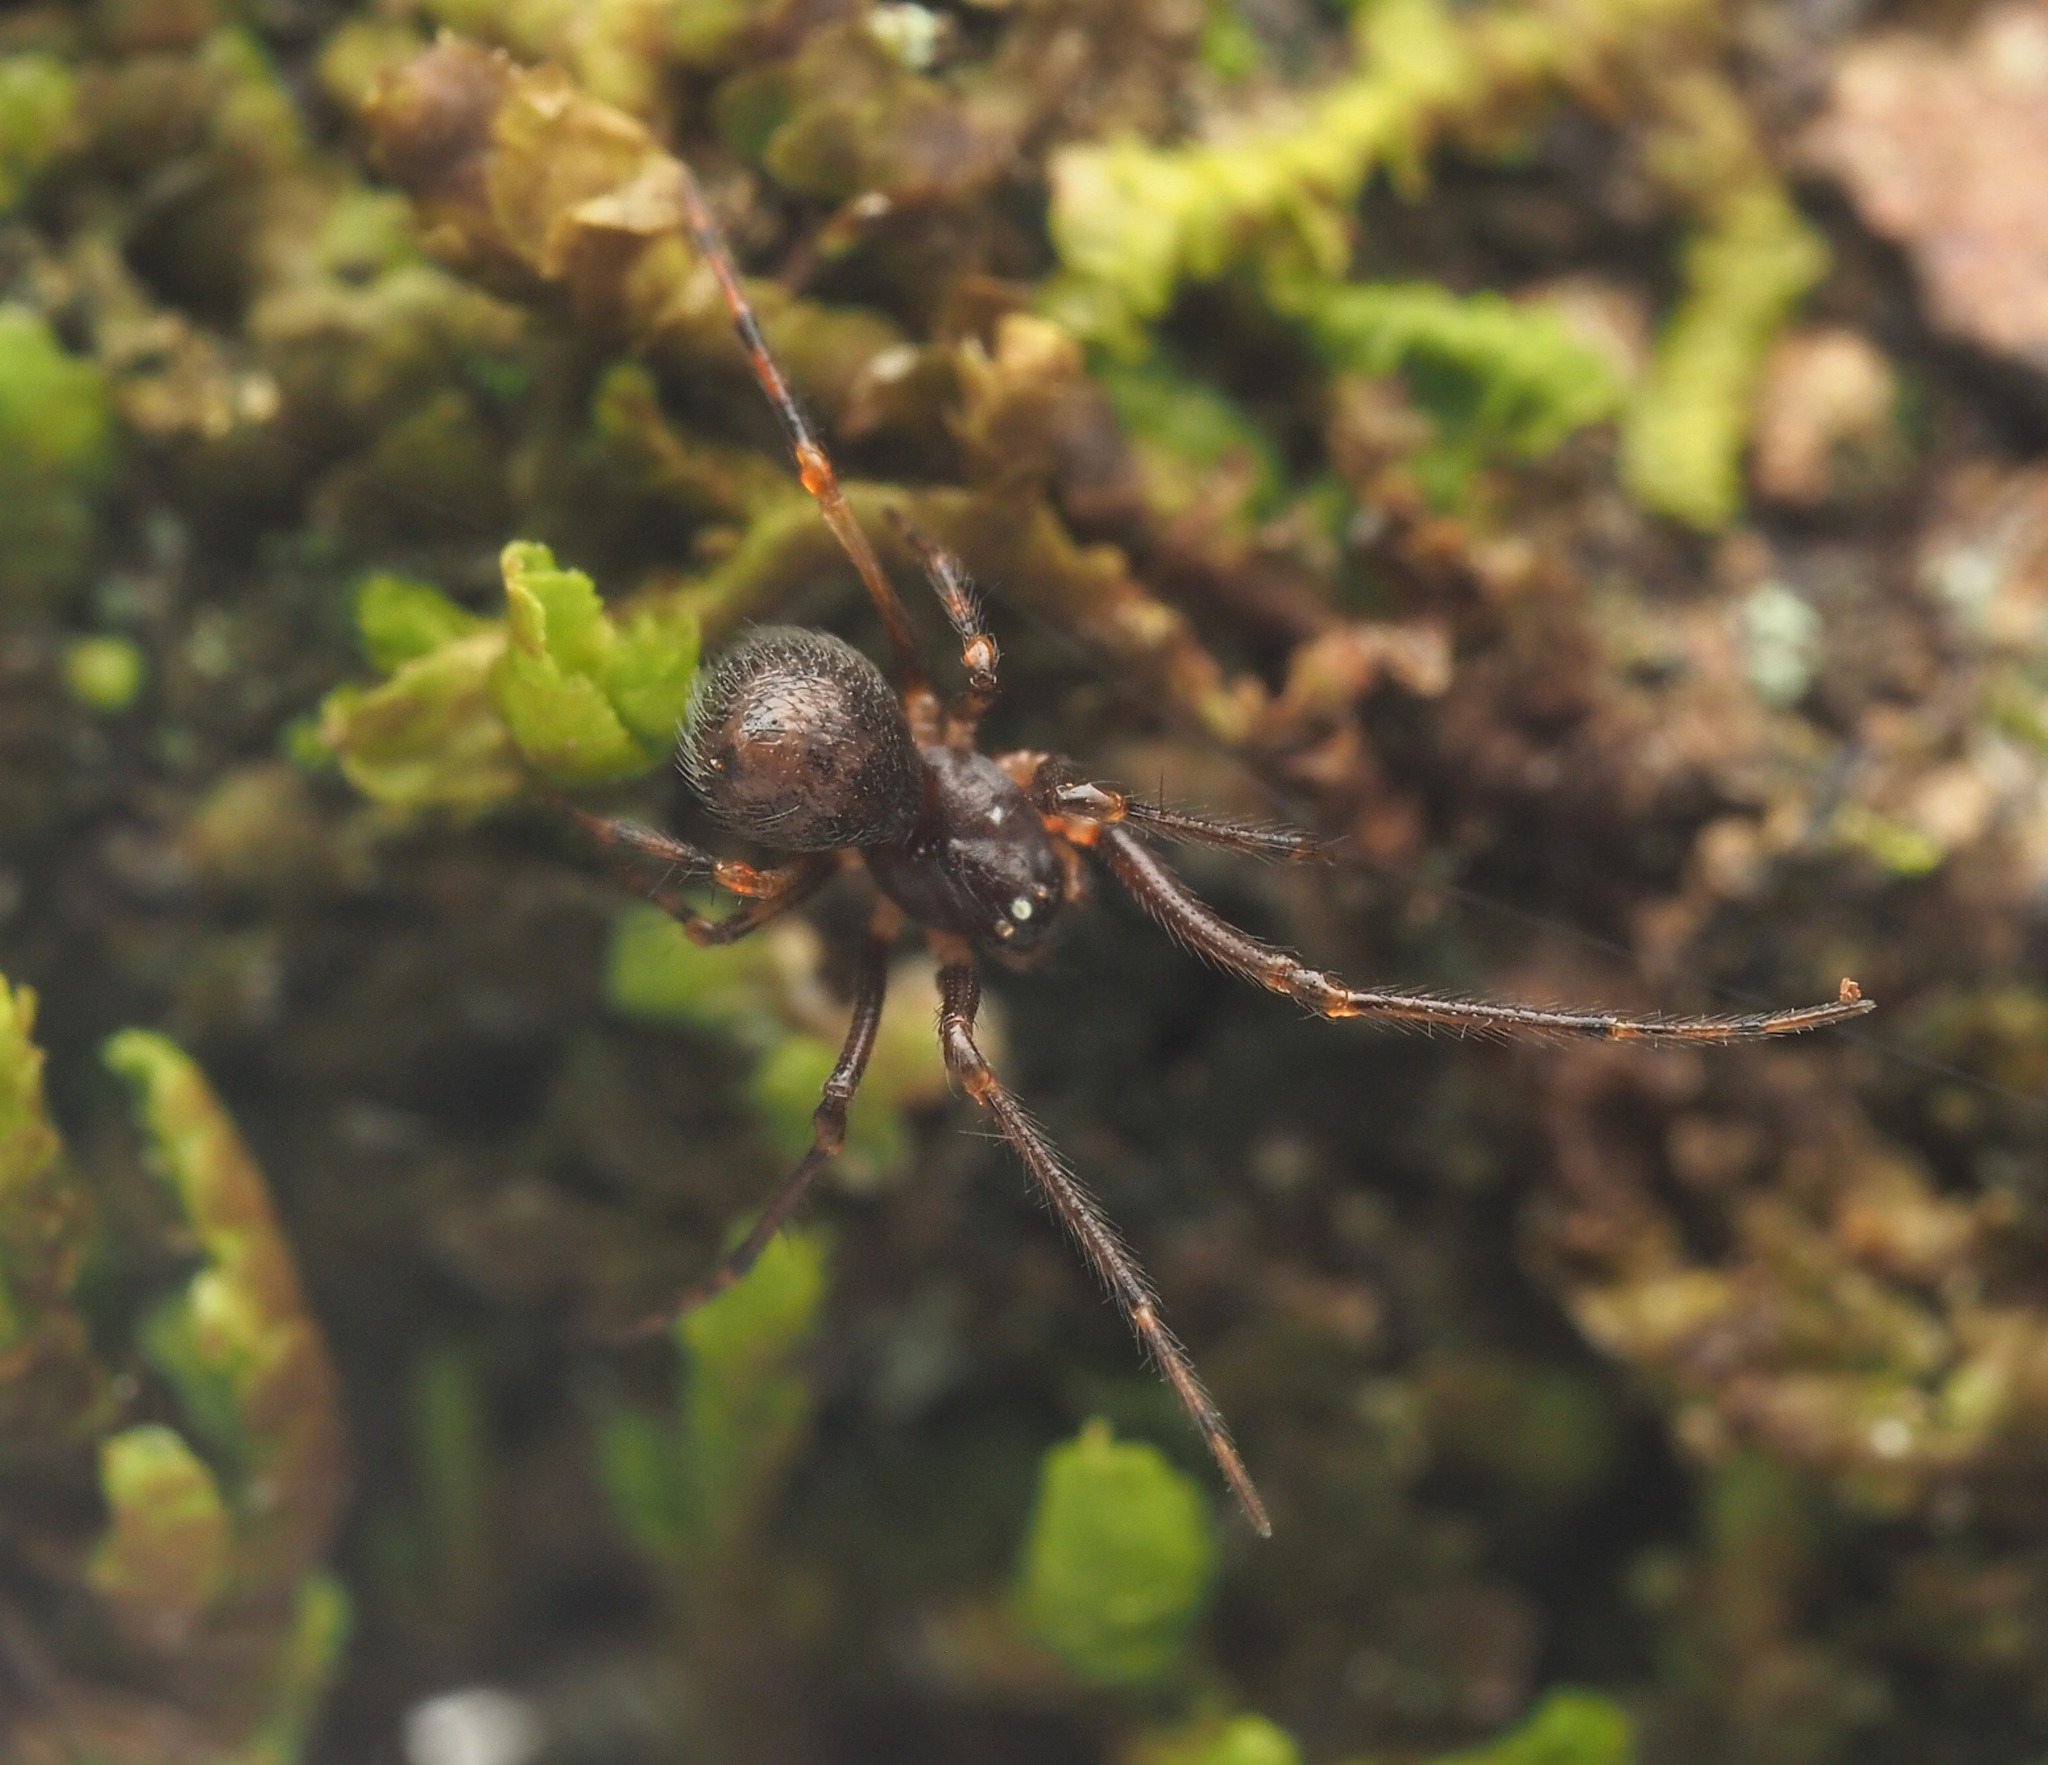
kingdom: Animalia
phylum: Arthropoda
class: Arachnida
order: Araneae
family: Cyatholipidae
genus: Teemenaarus
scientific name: Teemenaarus
